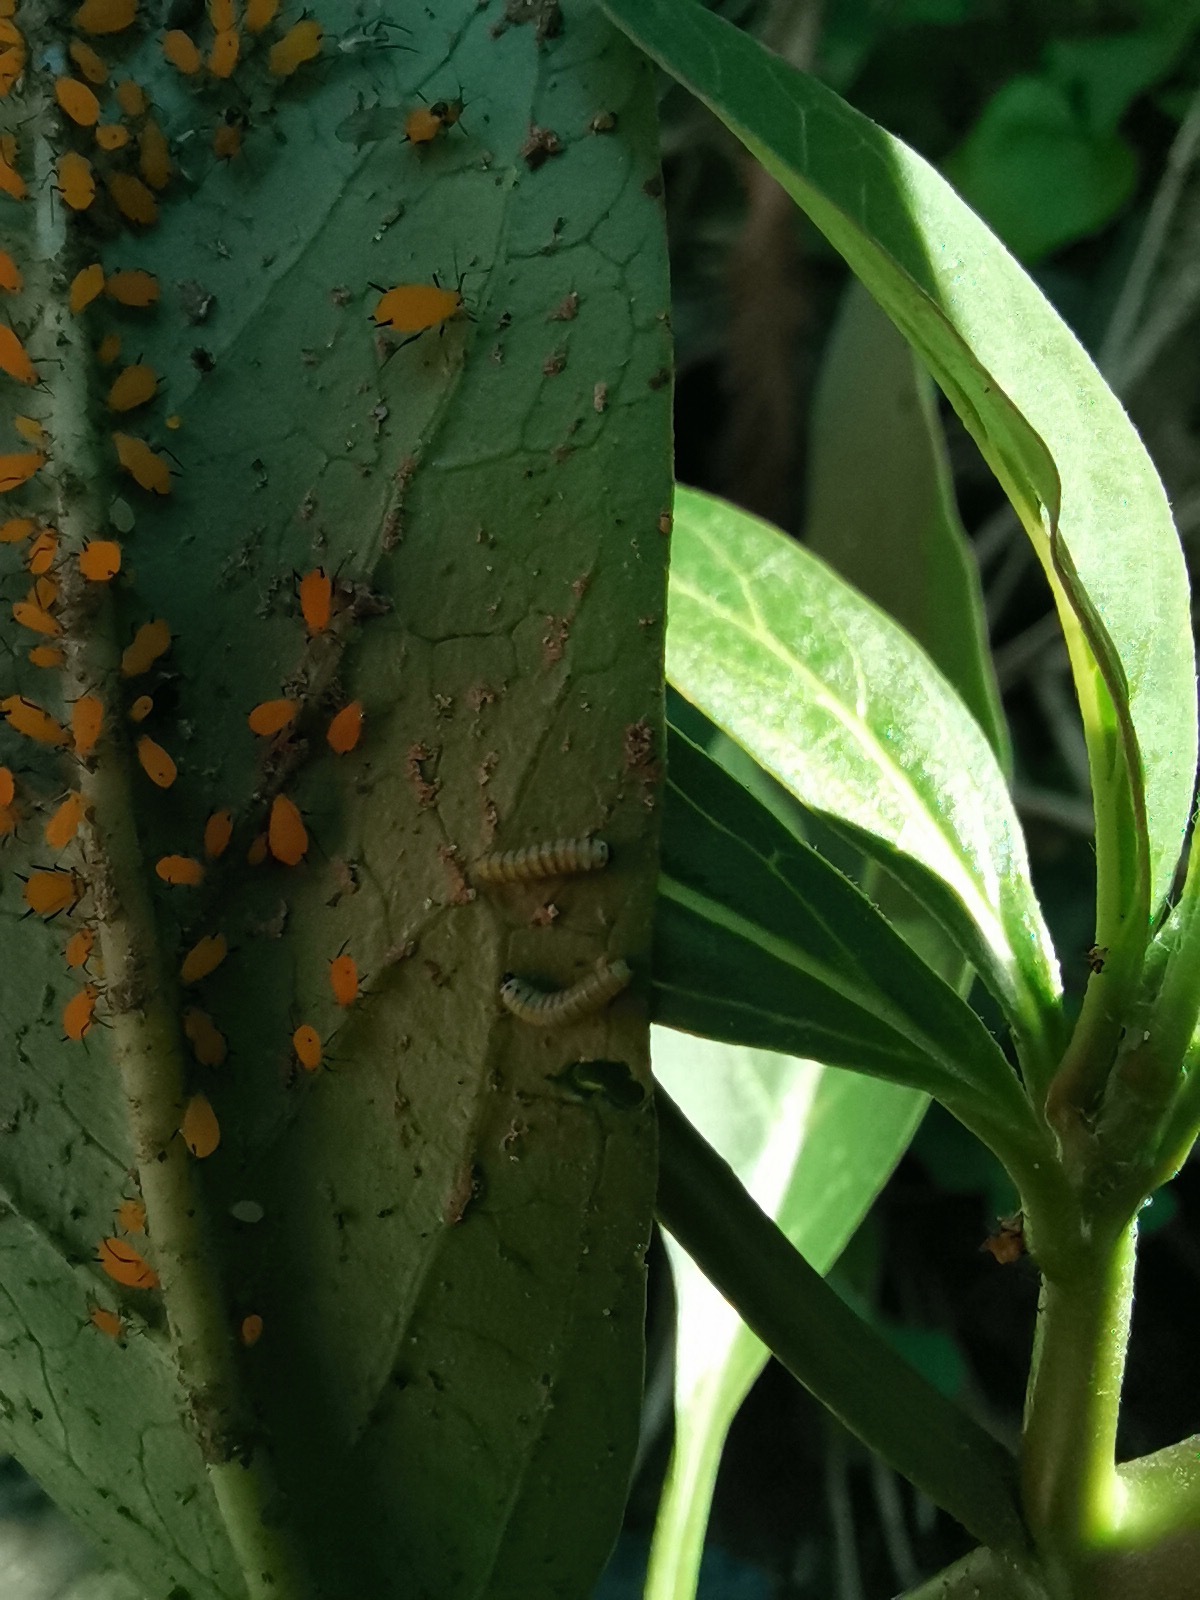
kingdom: Animalia
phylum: Arthropoda
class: Insecta
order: Lepidoptera
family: Nymphalidae
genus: Danaus
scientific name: Danaus plexippus
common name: Monarch
